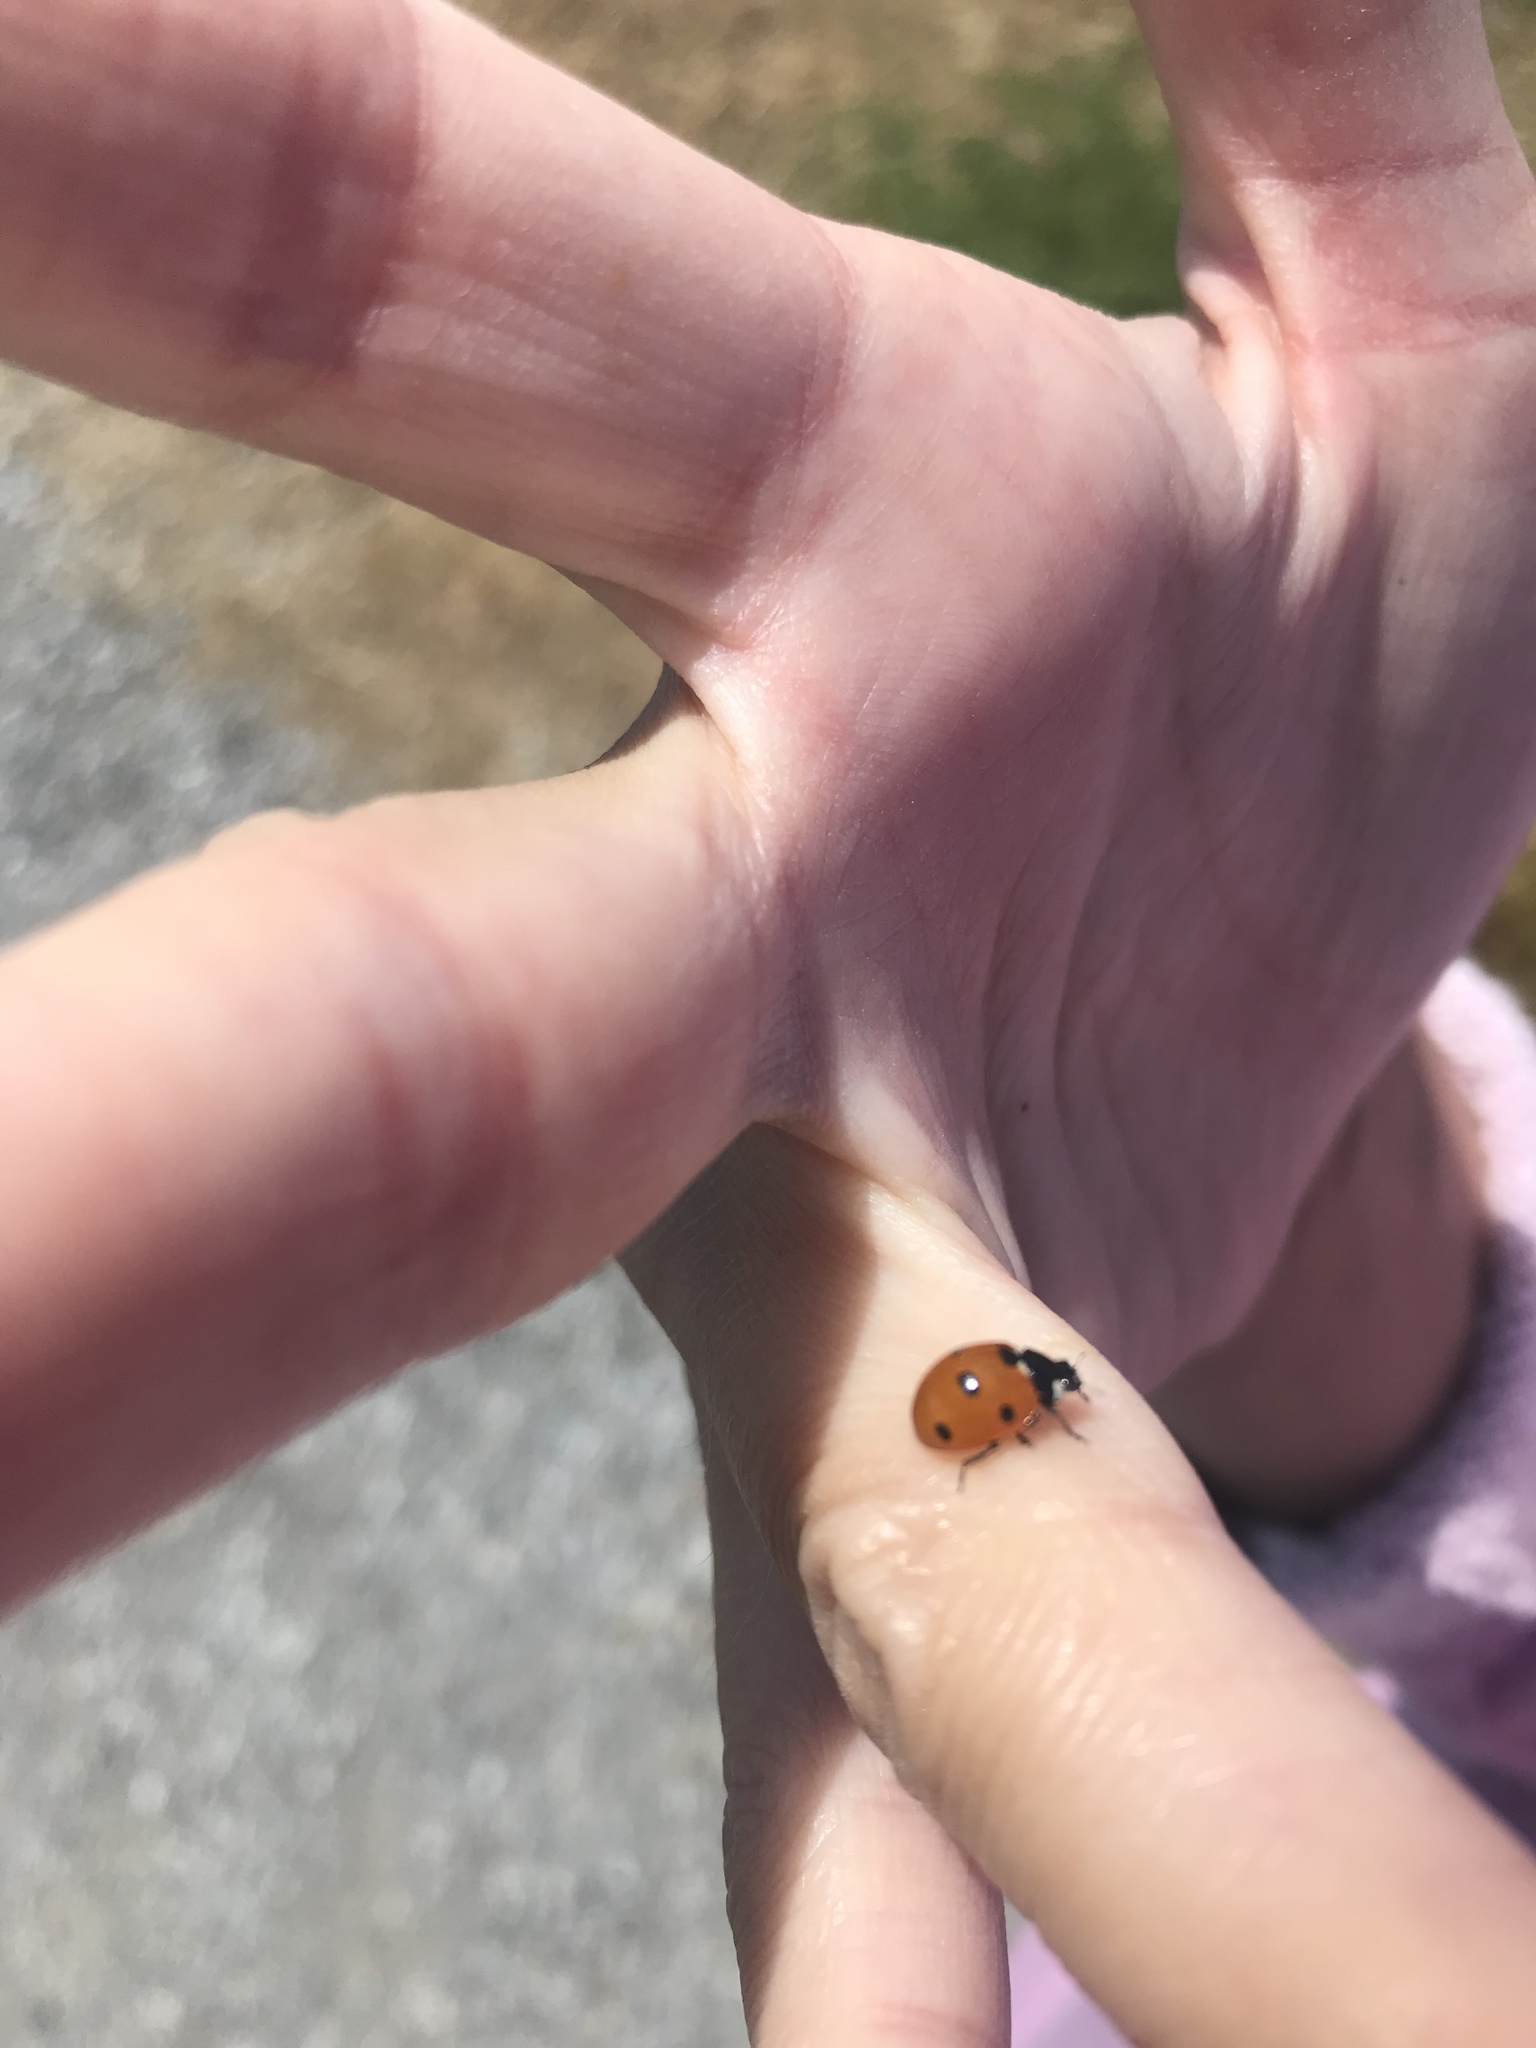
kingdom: Animalia
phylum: Arthropoda
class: Insecta
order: Coleoptera
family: Coccinellidae
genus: Coccinella
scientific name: Coccinella septempunctata
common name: Sevenspotted lady beetle
